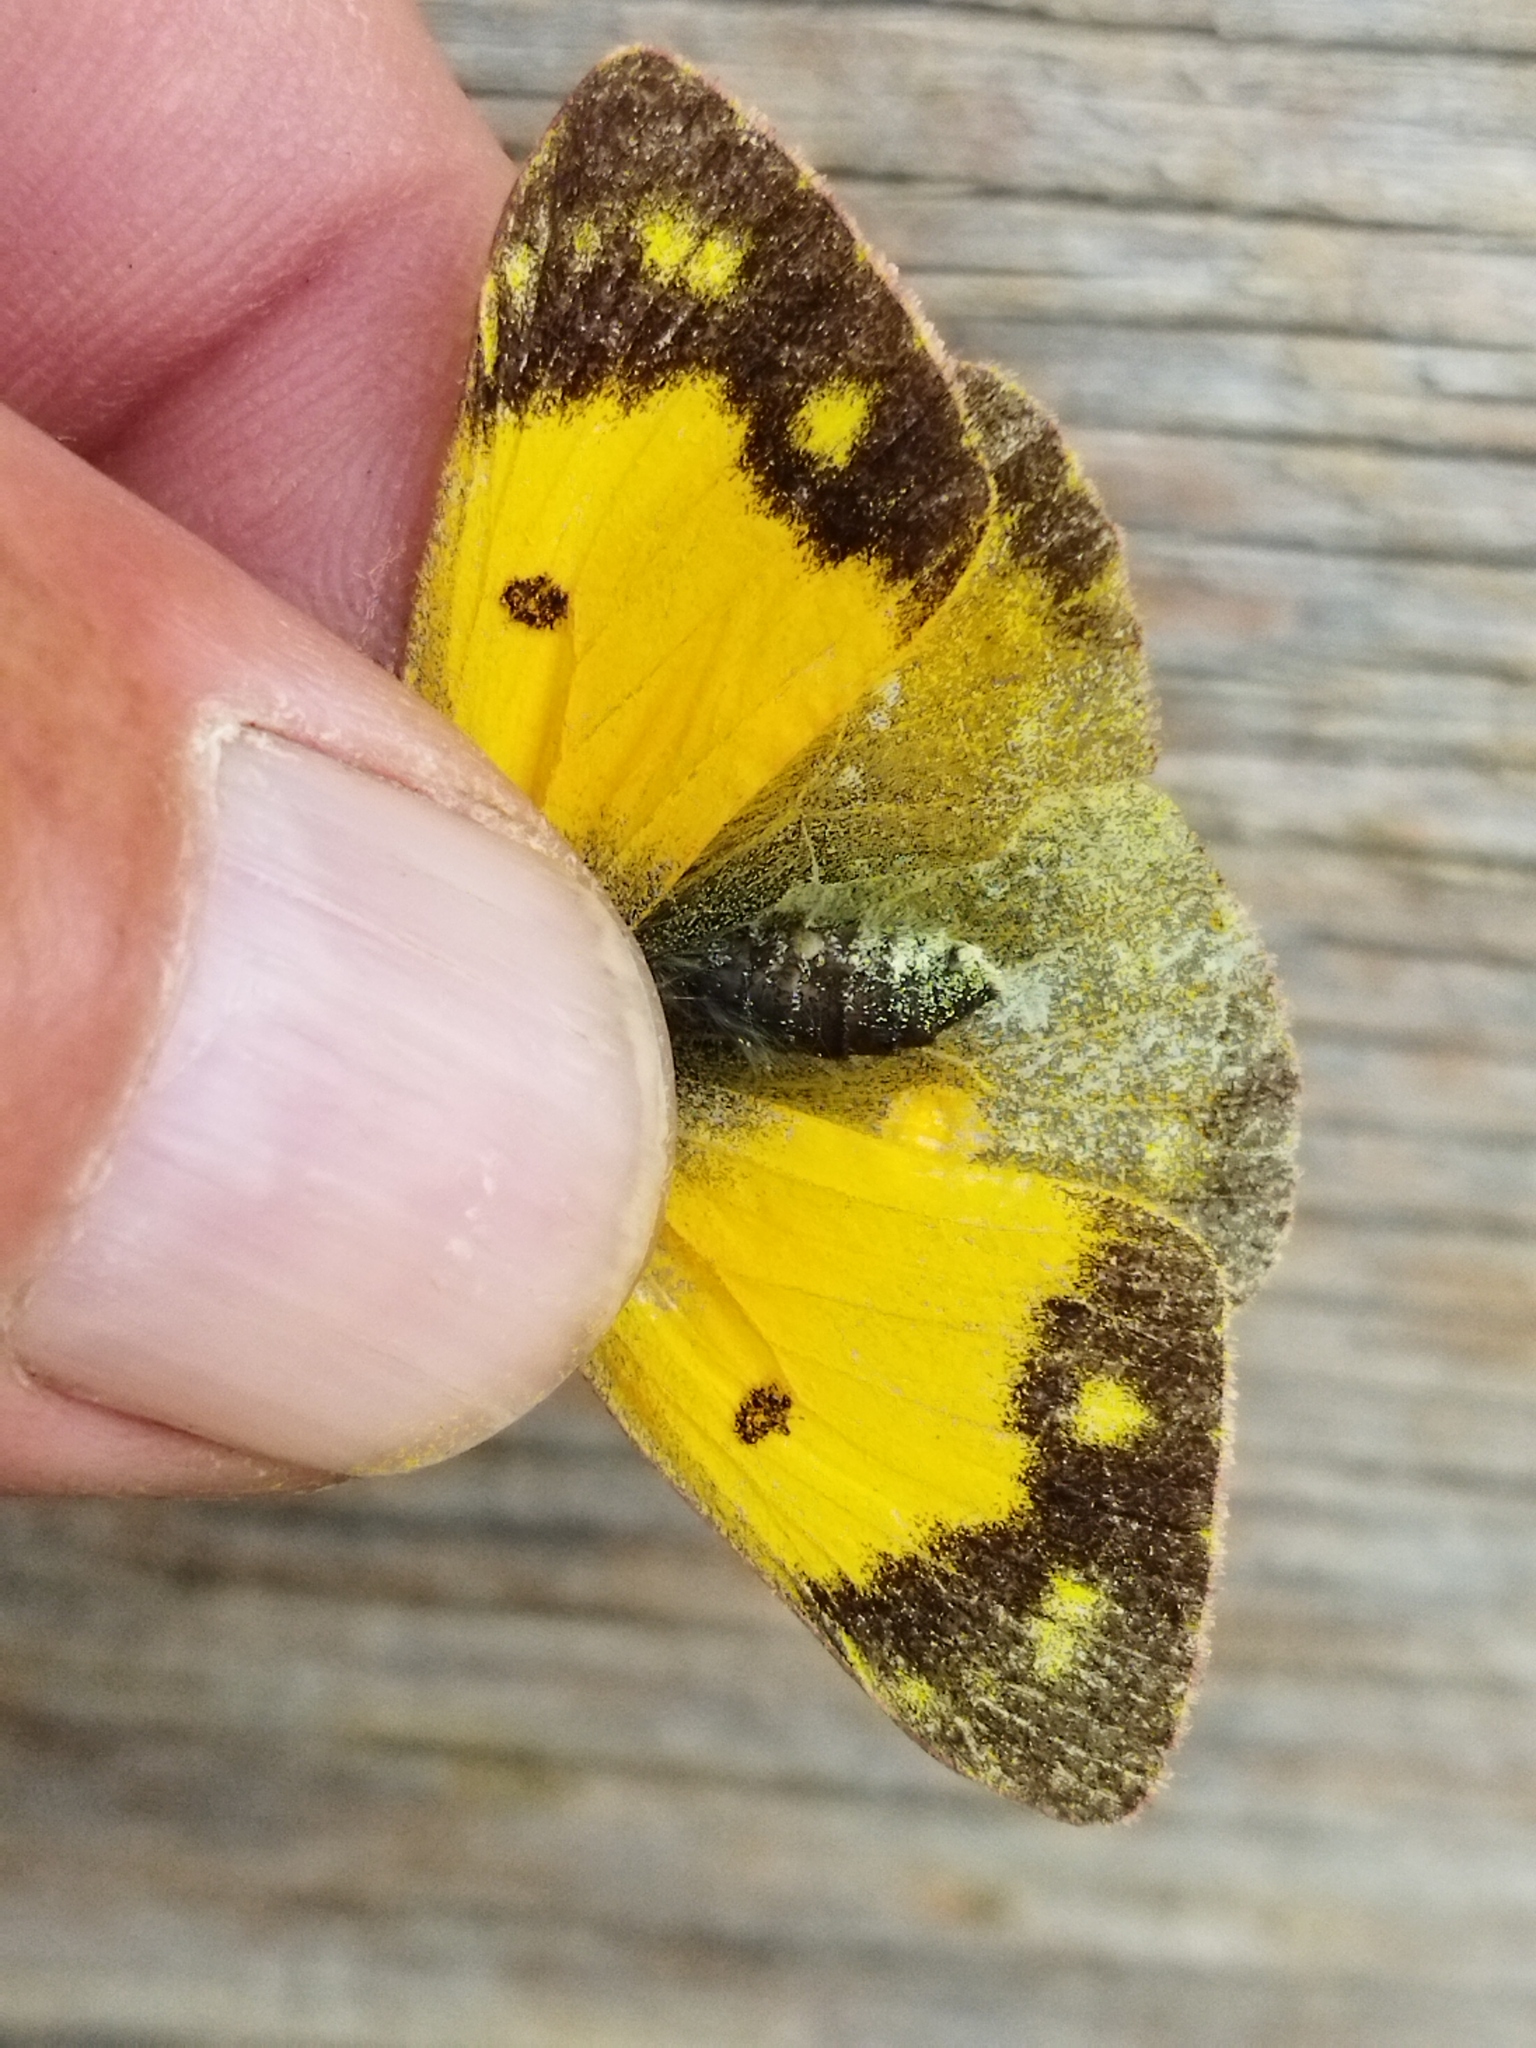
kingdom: Animalia
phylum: Arthropoda
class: Insecta
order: Lepidoptera
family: Pieridae
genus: Colias
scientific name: Colias croceus
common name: Clouded yellow
